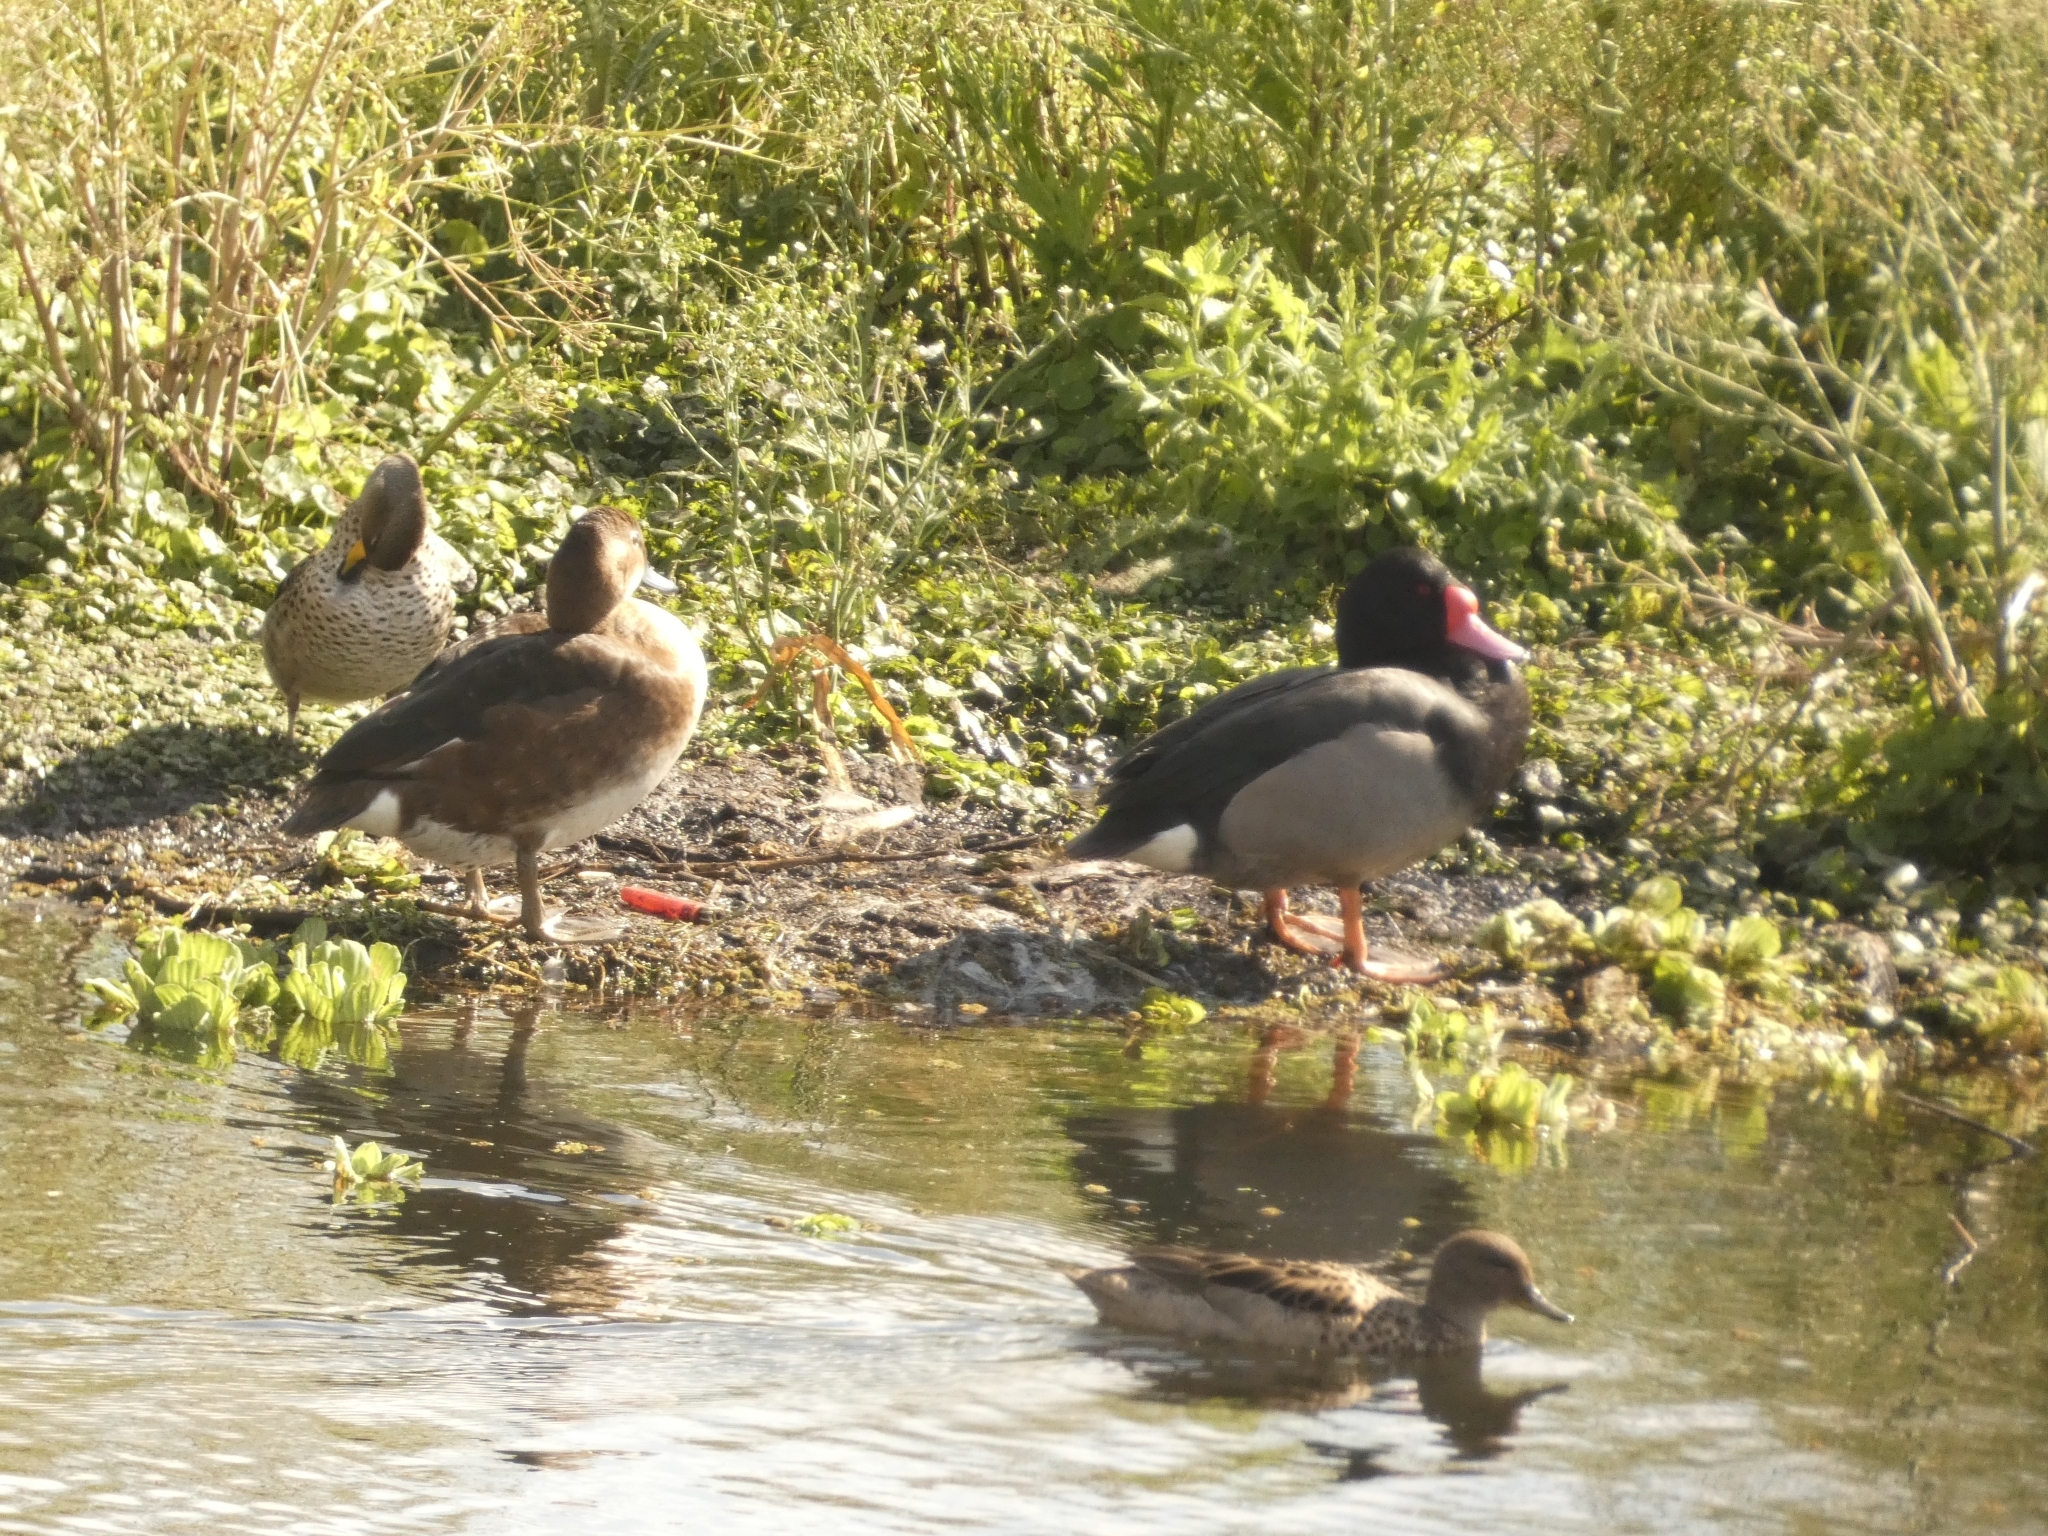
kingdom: Animalia
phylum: Chordata
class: Aves
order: Anseriformes
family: Anatidae
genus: Netta
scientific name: Netta peposaca
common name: Rosy-billed pochard
